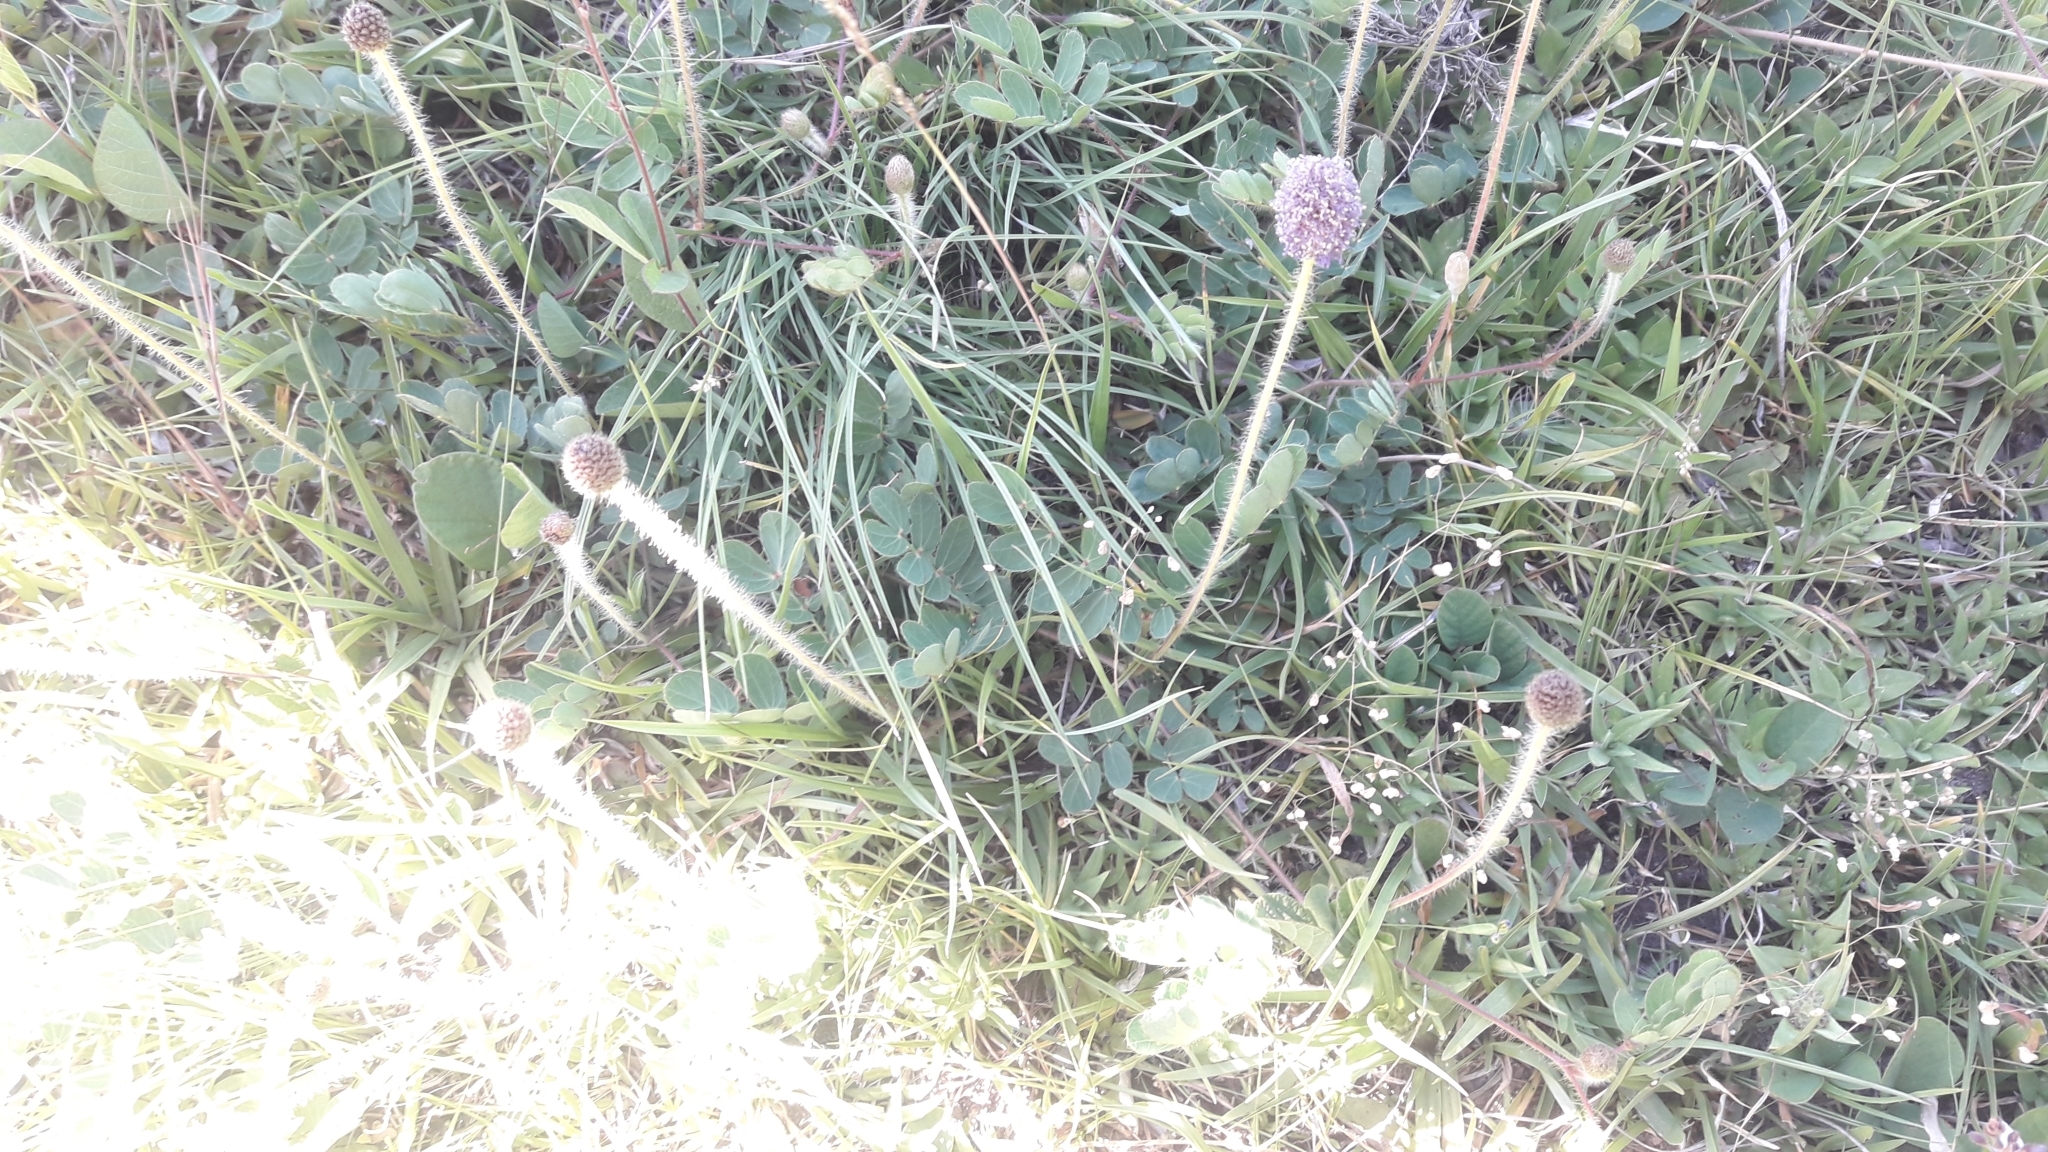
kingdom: Plantae
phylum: Tracheophyta
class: Magnoliopsida
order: Fabales
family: Fabaceae
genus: Mimosa
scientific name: Mimosa flagellaris
